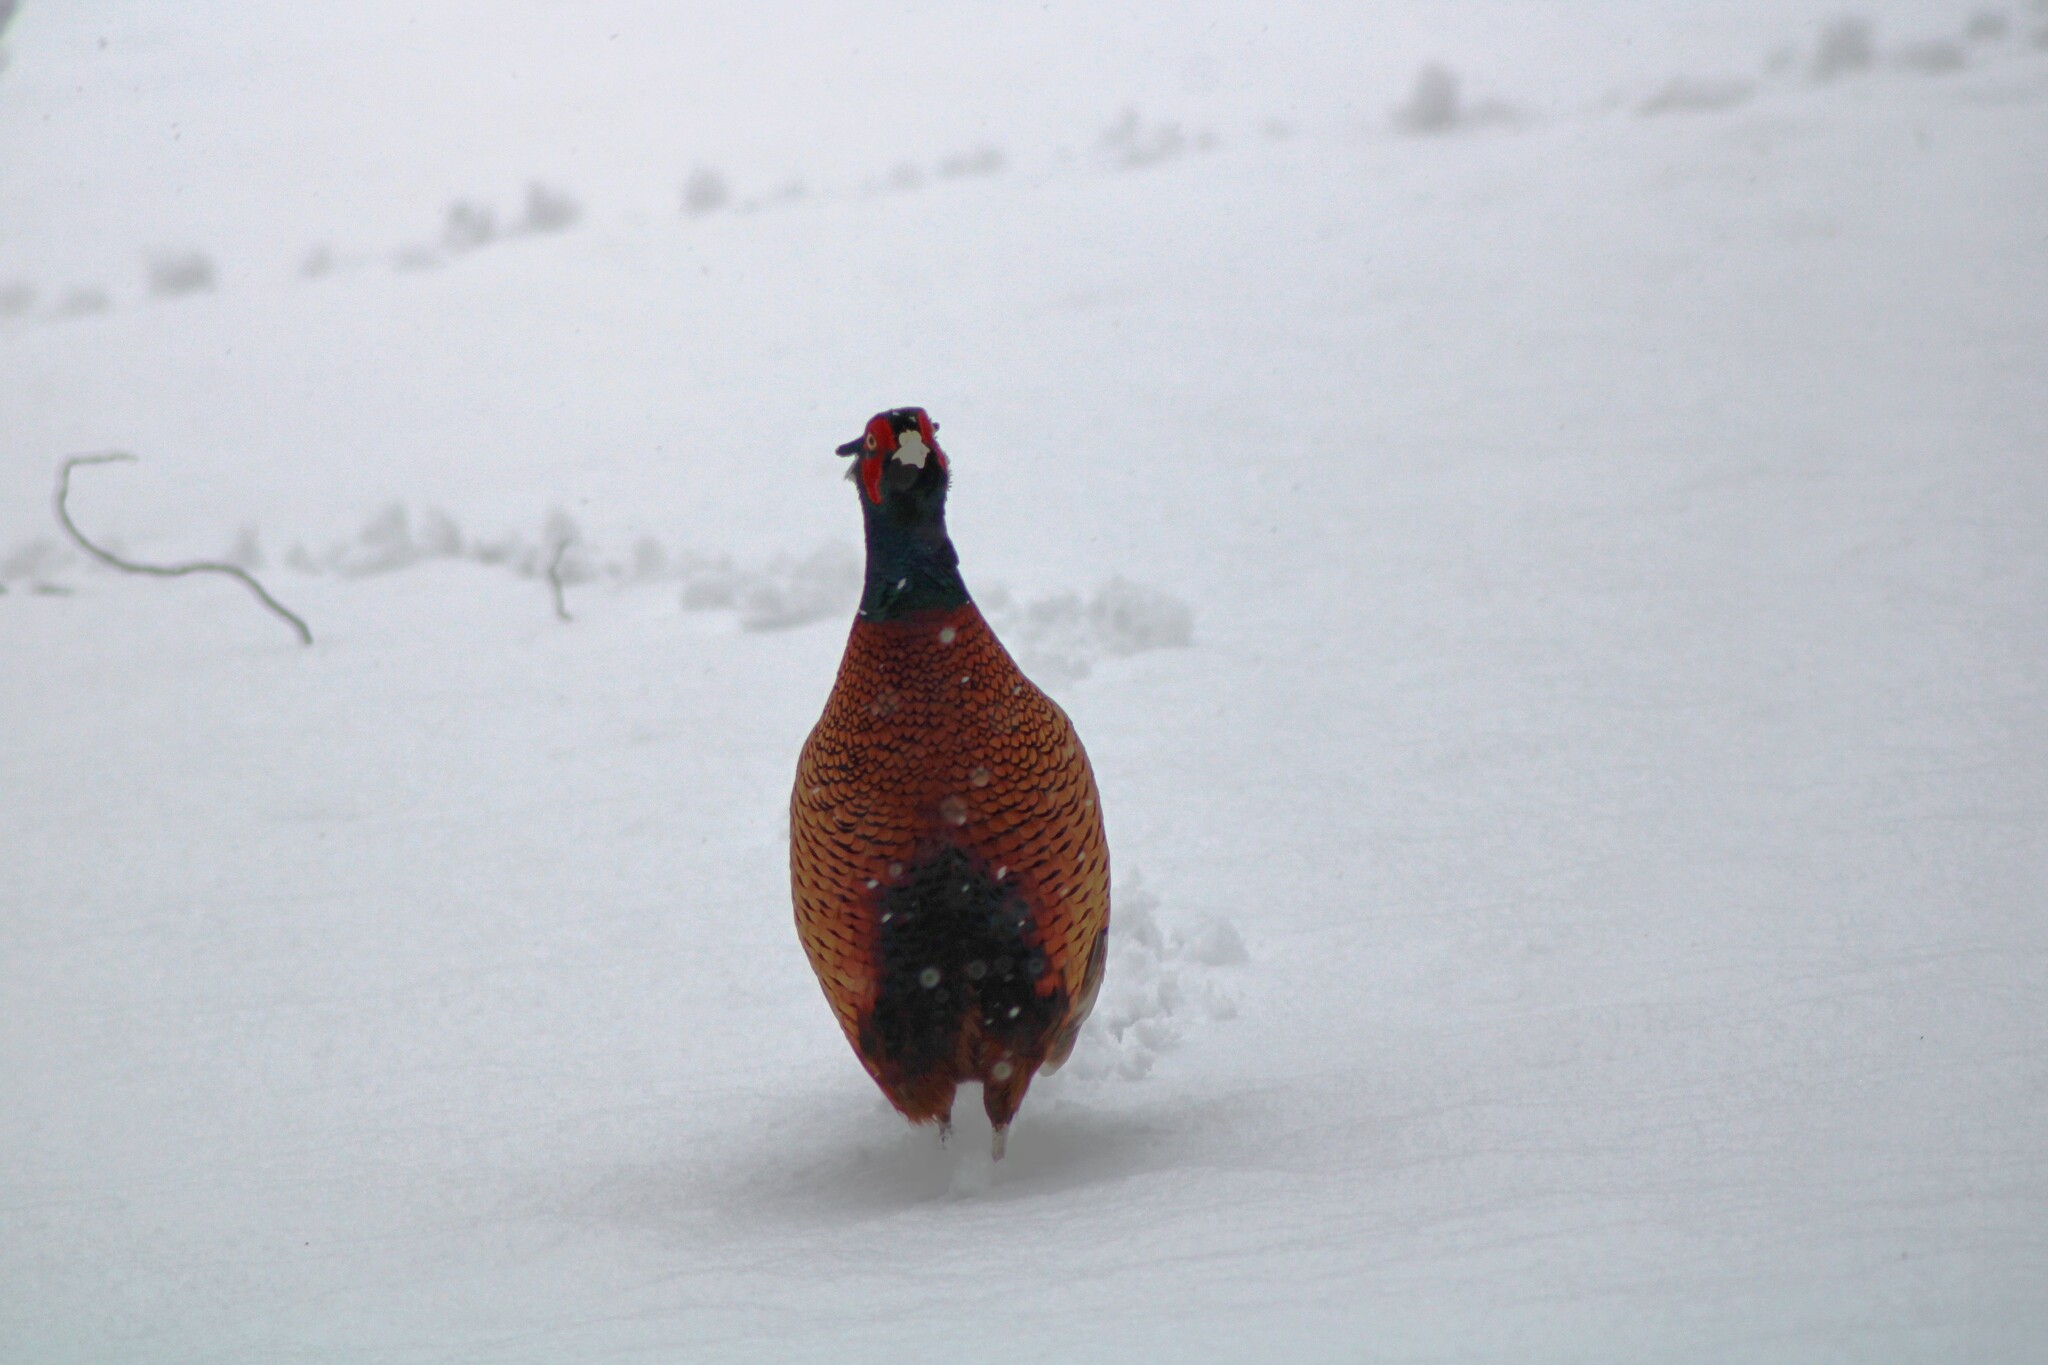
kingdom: Animalia
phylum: Chordata
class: Aves
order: Galliformes
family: Phasianidae
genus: Phasianus
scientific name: Phasianus colchicus
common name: Common pheasant
